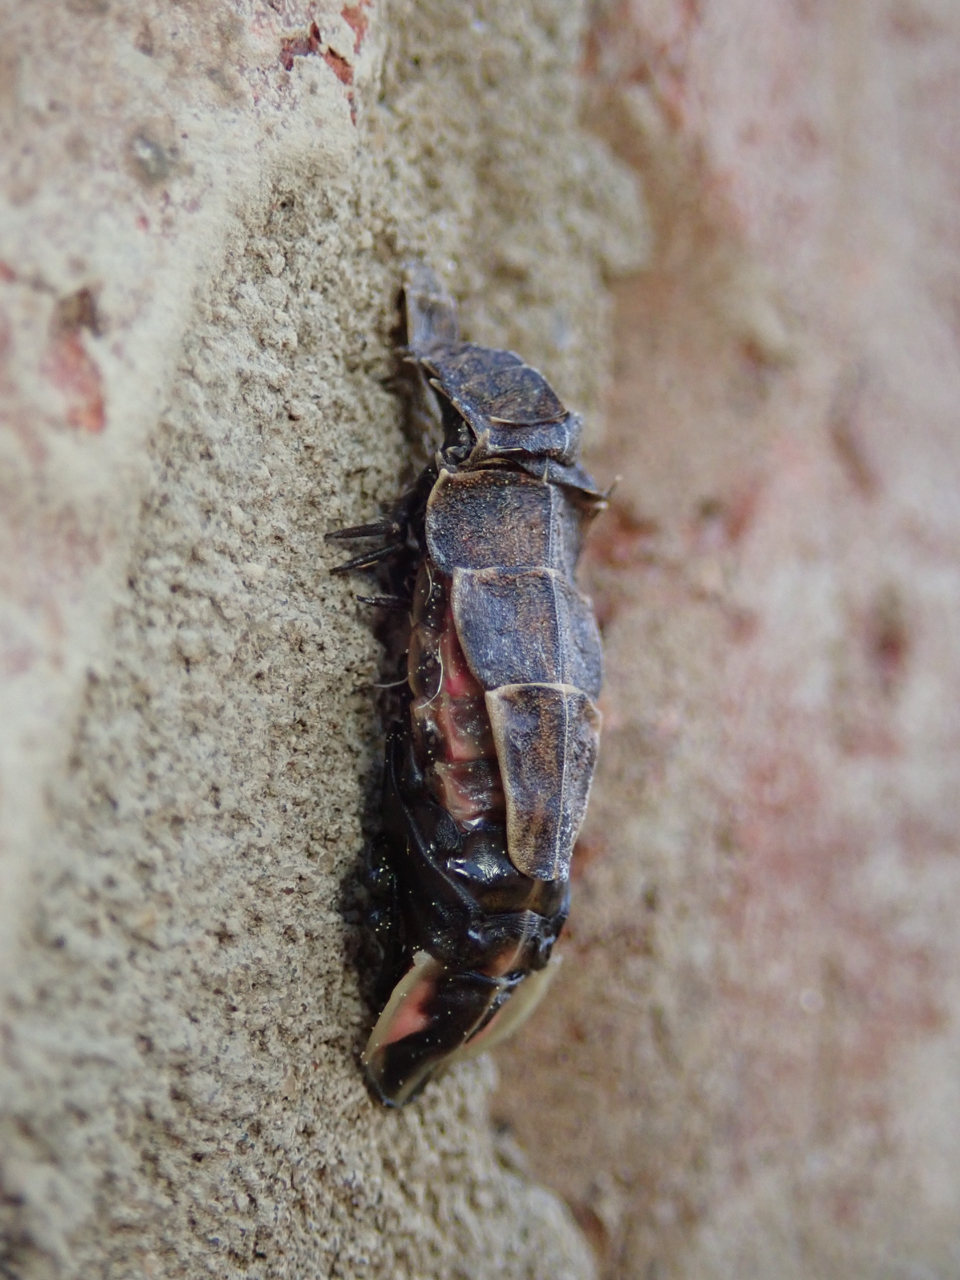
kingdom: Animalia
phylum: Arthropoda
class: Insecta
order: Coleoptera
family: Lampyridae
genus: Pyractomena
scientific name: Pyractomena borealis
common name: Northern firefly
